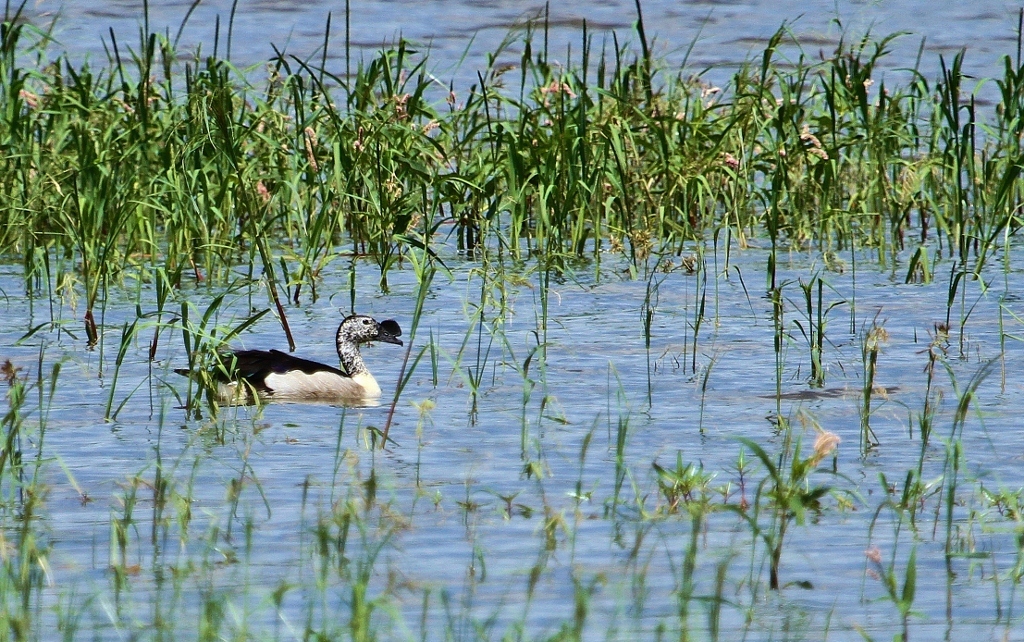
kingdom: Animalia
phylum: Chordata
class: Aves
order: Anseriformes
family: Anatidae
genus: Sarkidiornis
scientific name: Sarkidiornis melanotos
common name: Comb duck
